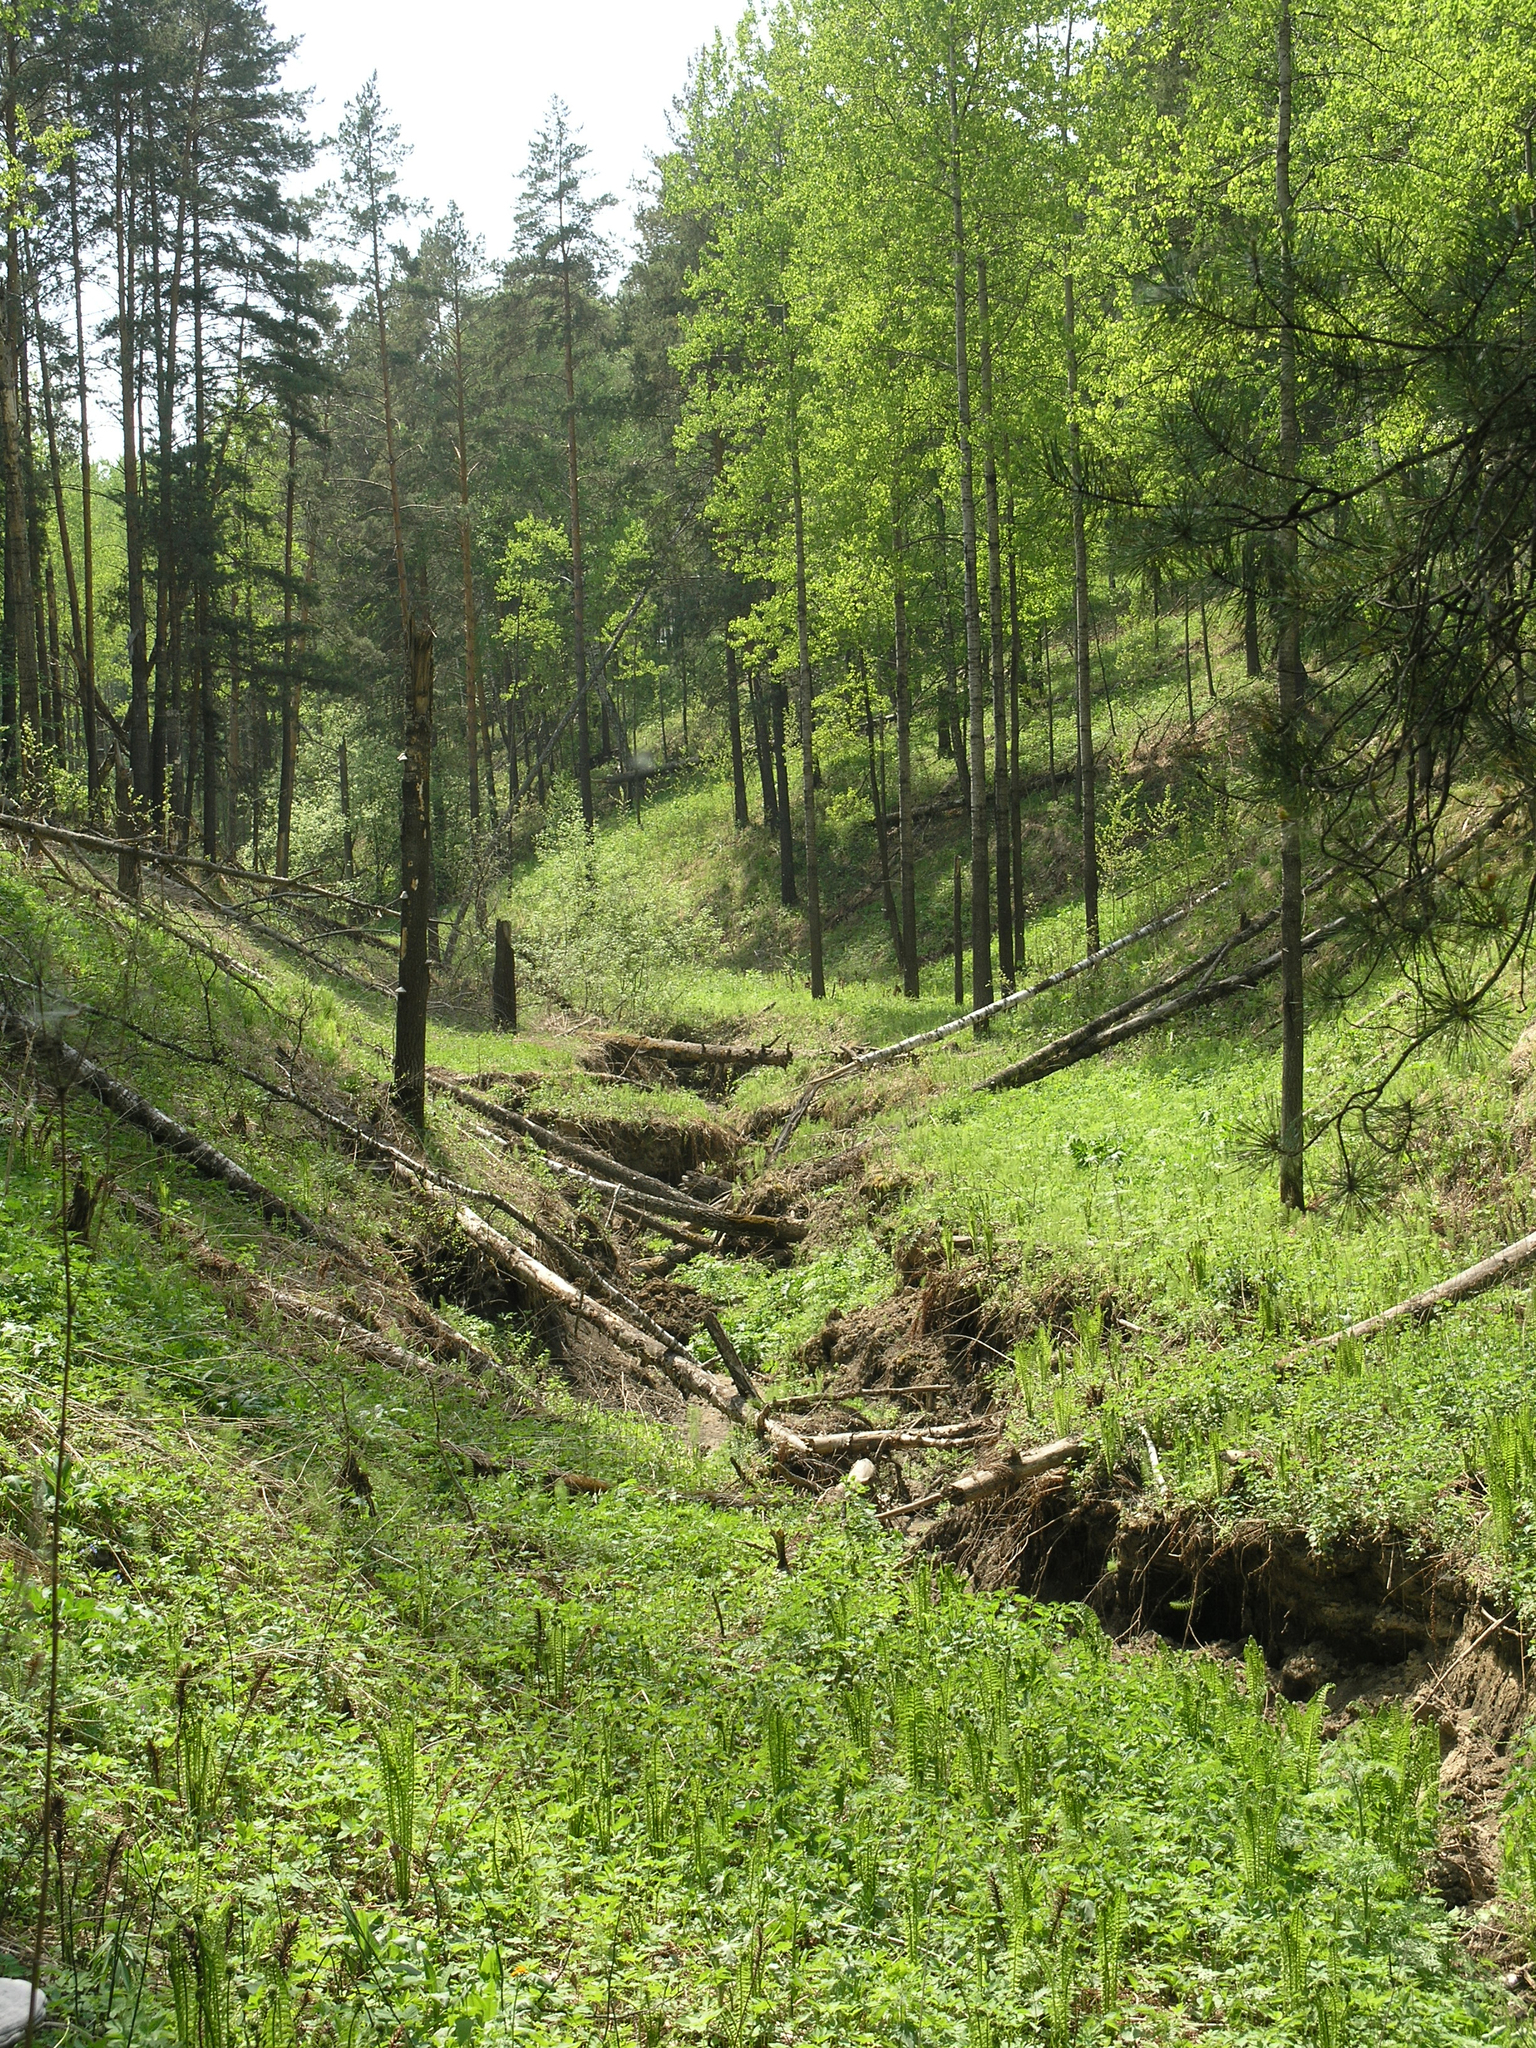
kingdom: Plantae
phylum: Tracheophyta
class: Pinopsida
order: Pinales
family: Pinaceae
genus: Pinus
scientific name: Pinus sylvestris
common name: Scots pine
